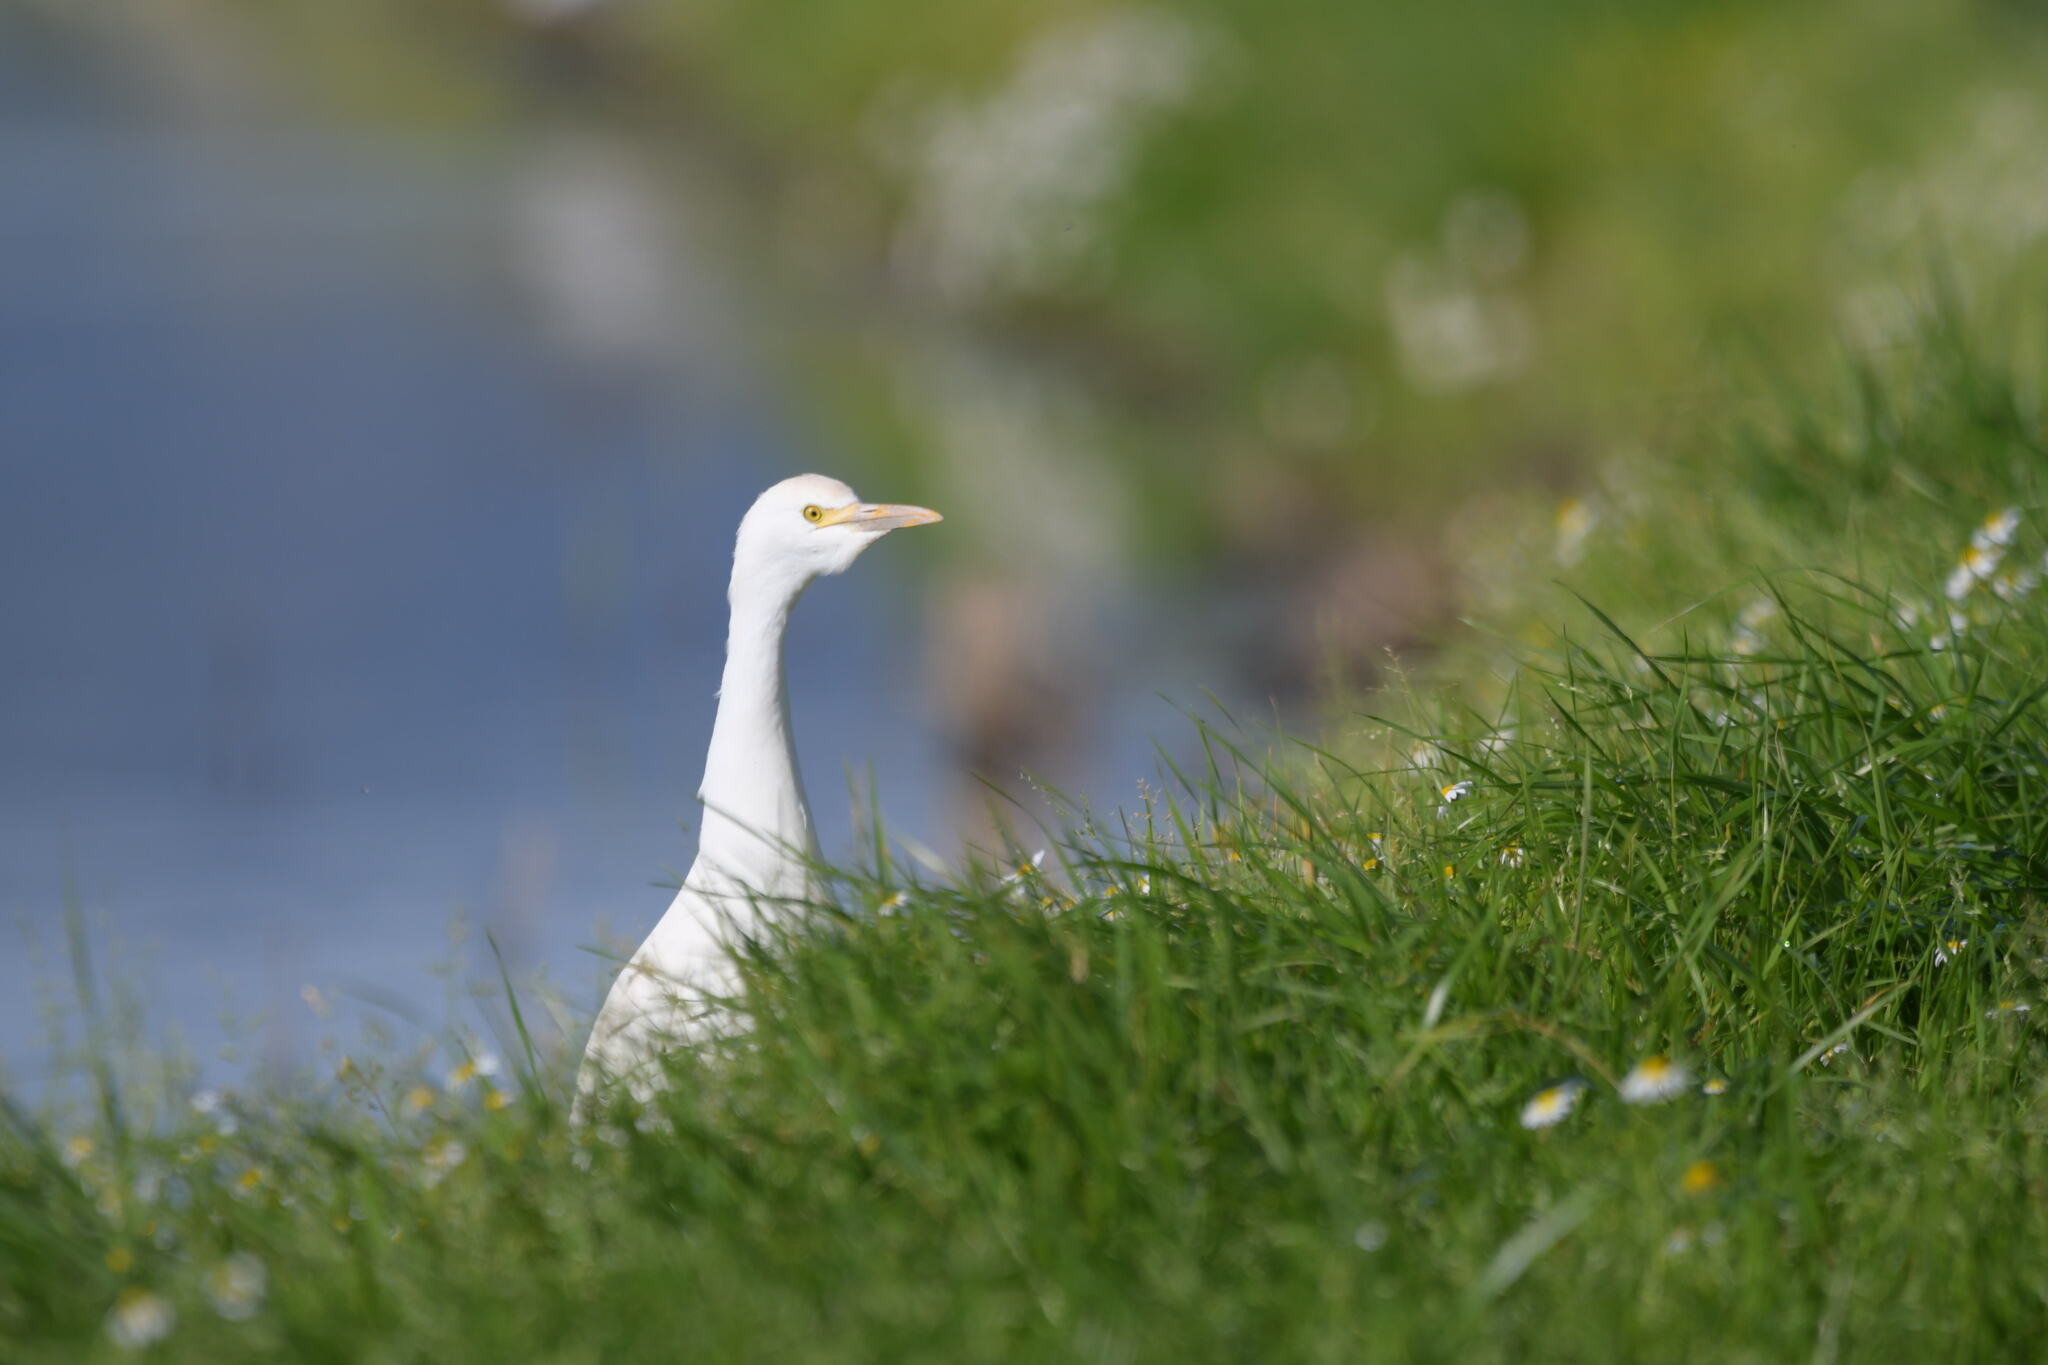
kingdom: Animalia
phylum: Chordata
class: Aves
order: Pelecaniformes
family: Ardeidae
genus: Bubulcus
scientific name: Bubulcus ibis
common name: Cattle egret
